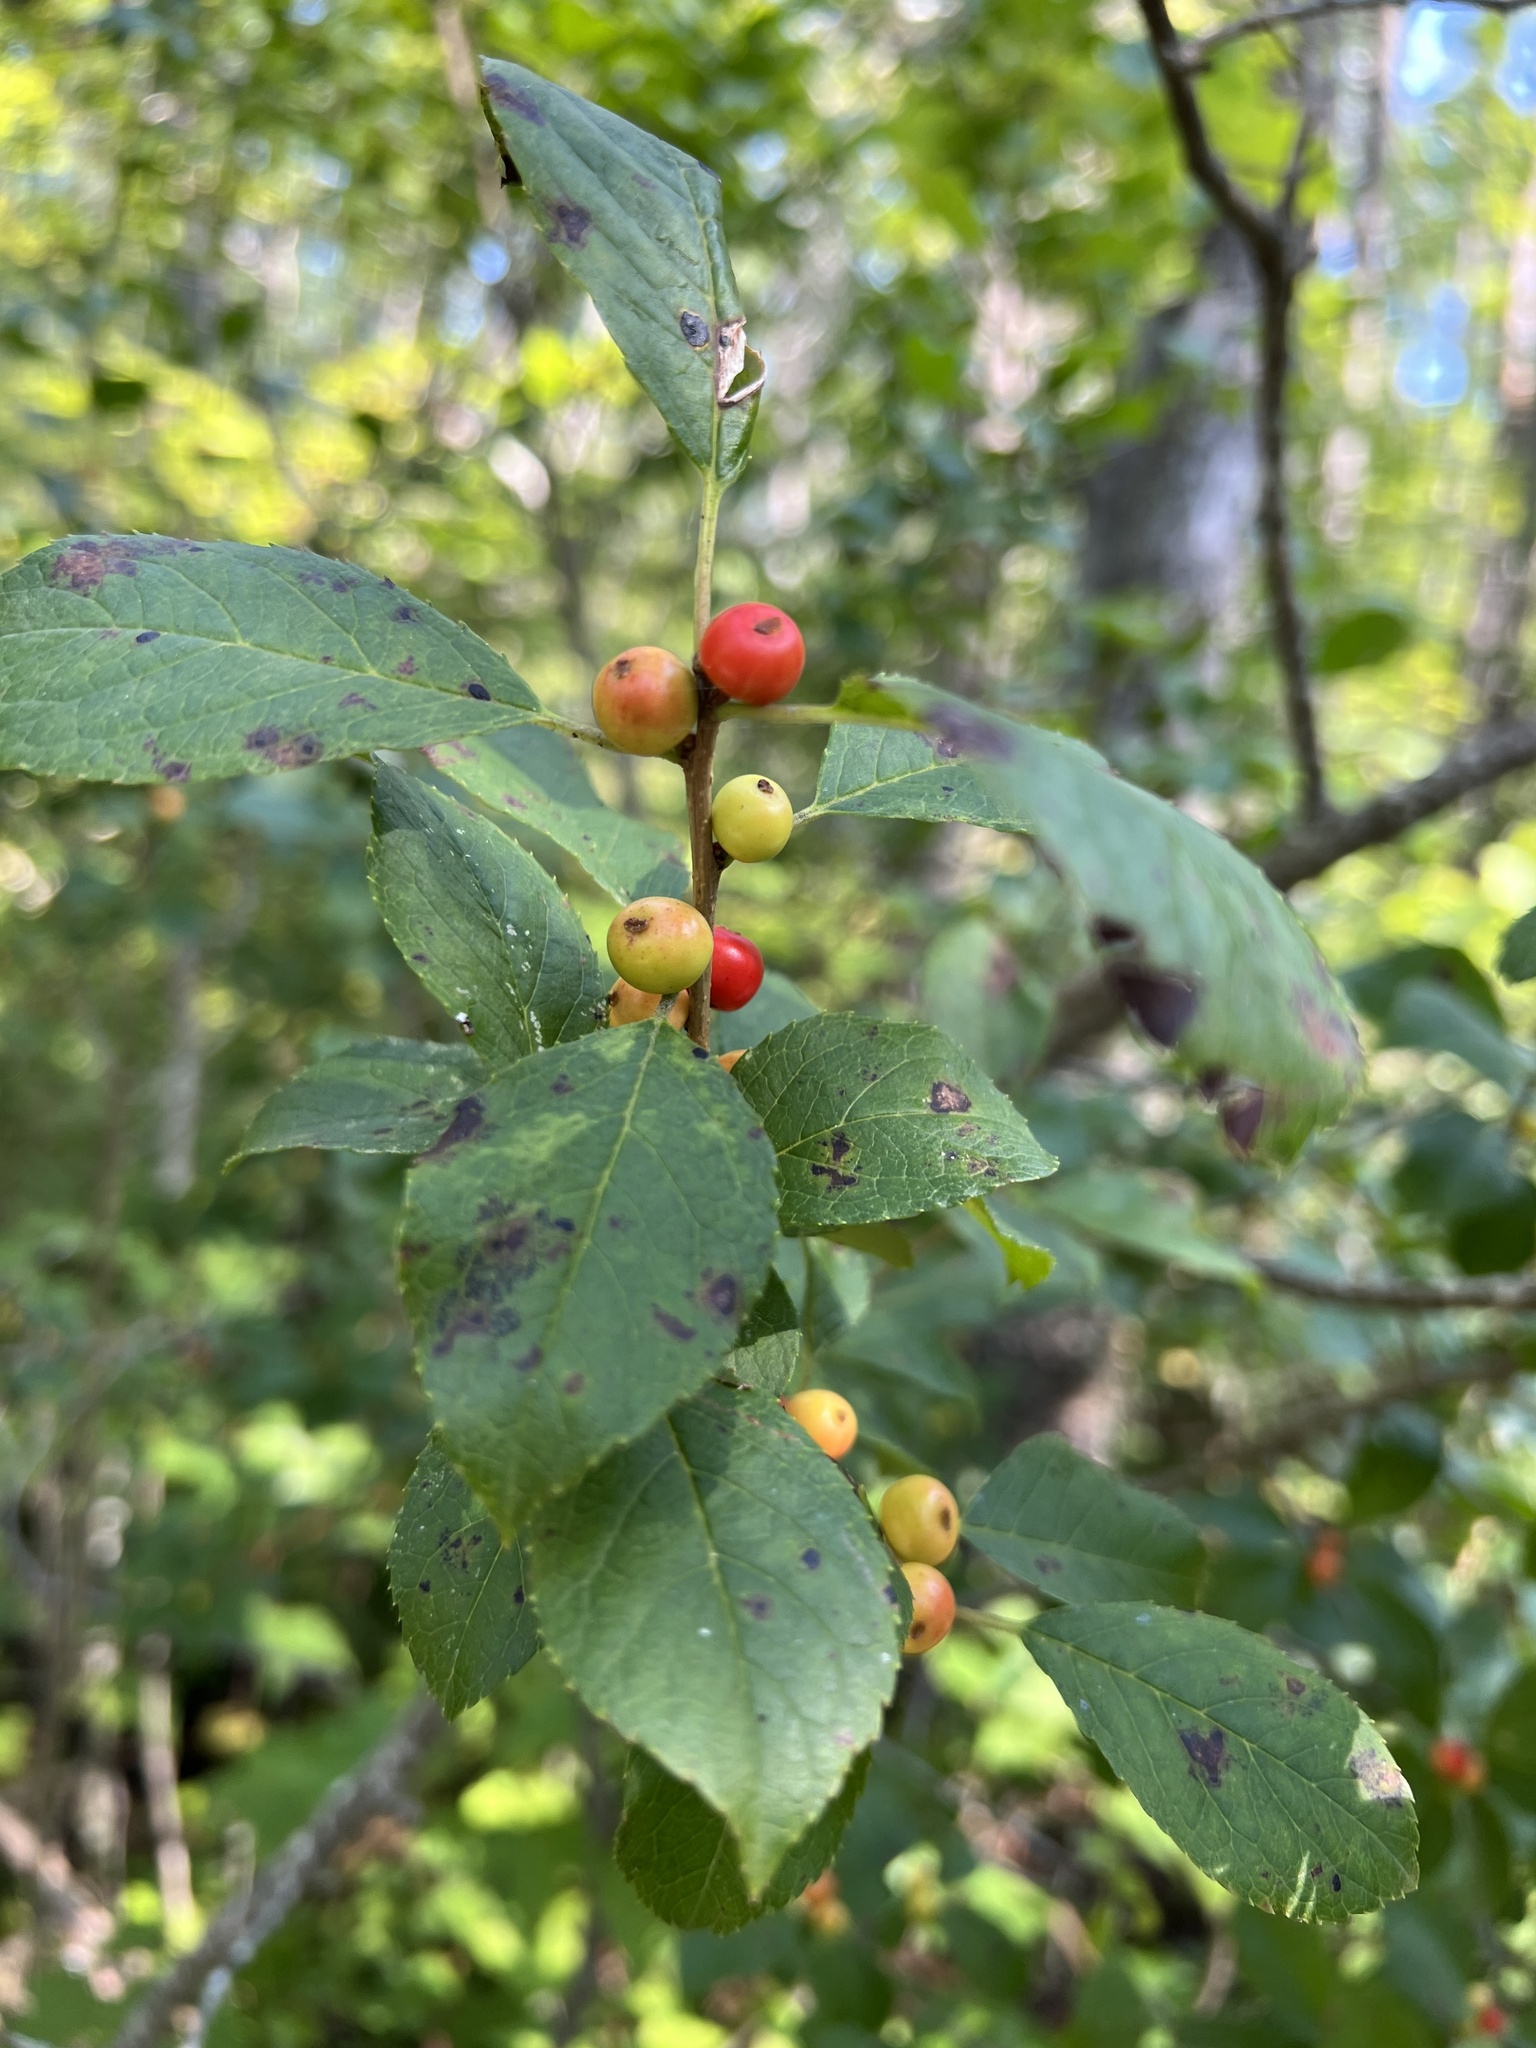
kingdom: Plantae
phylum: Tracheophyta
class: Magnoliopsida
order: Aquifoliales
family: Aquifoliaceae
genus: Ilex
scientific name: Ilex verticillata
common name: Virginia winterberry
